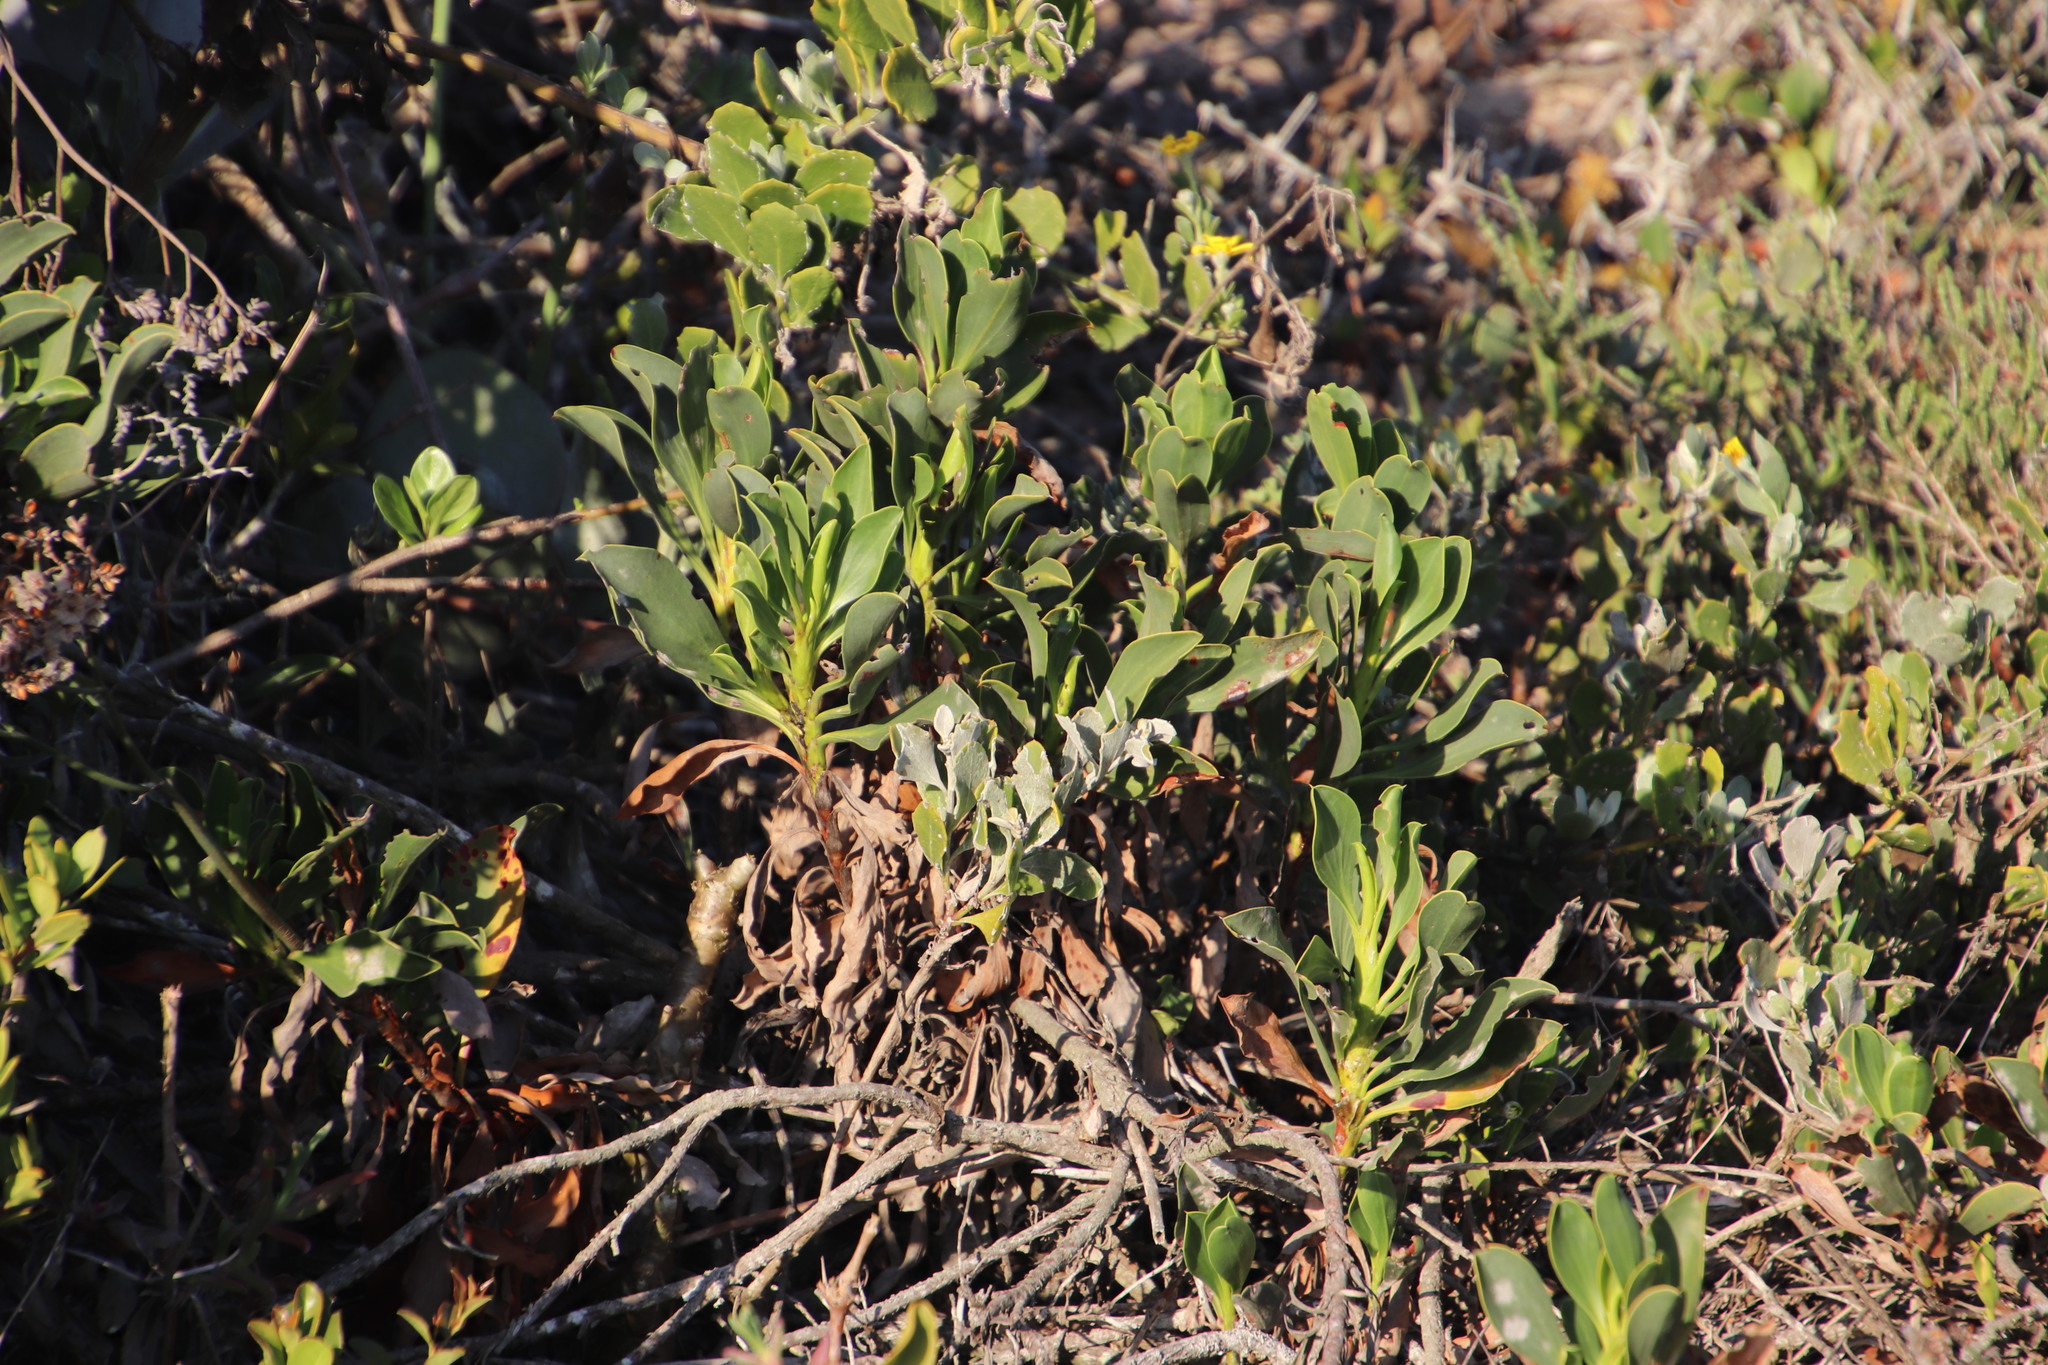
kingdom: Plantae
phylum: Tracheophyta
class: Magnoliopsida
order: Caryophyllales
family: Plumbaginaceae
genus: Limonium
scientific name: Limonium peregrinum
